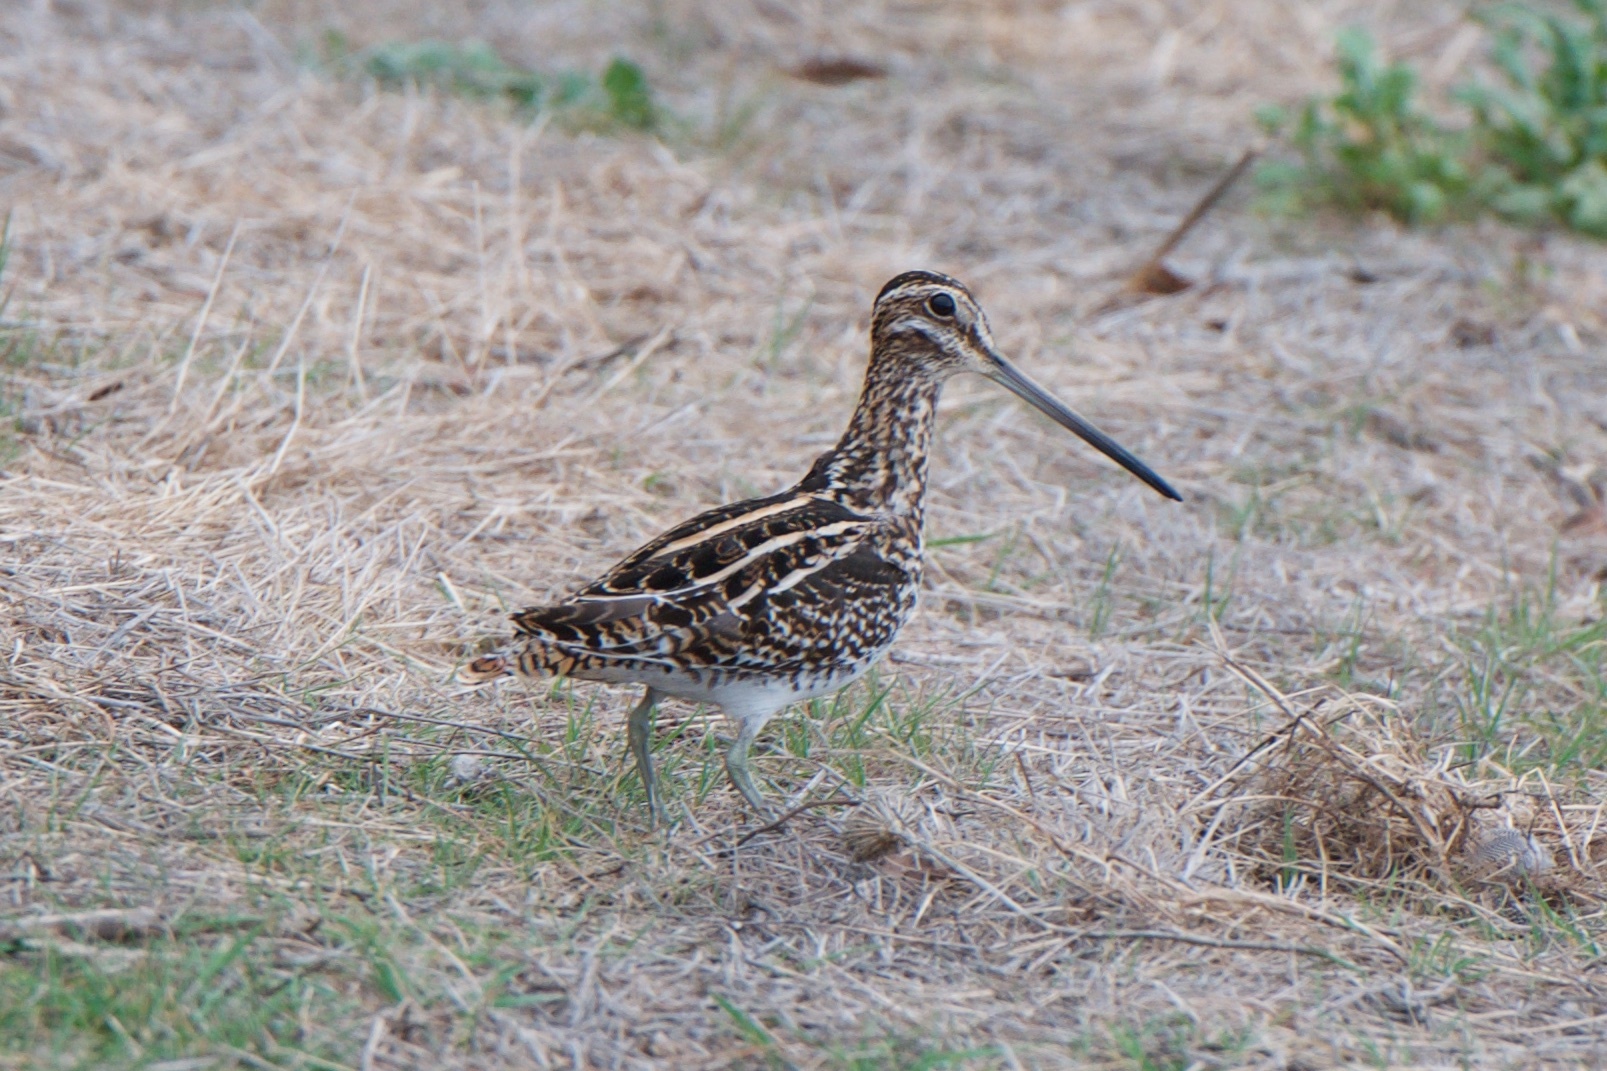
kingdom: Animalia
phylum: Chordata
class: Aves
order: Charadriiformes
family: Scolopacidae
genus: Gallinago
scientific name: Gallinago delicata
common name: Wilson's snipe
